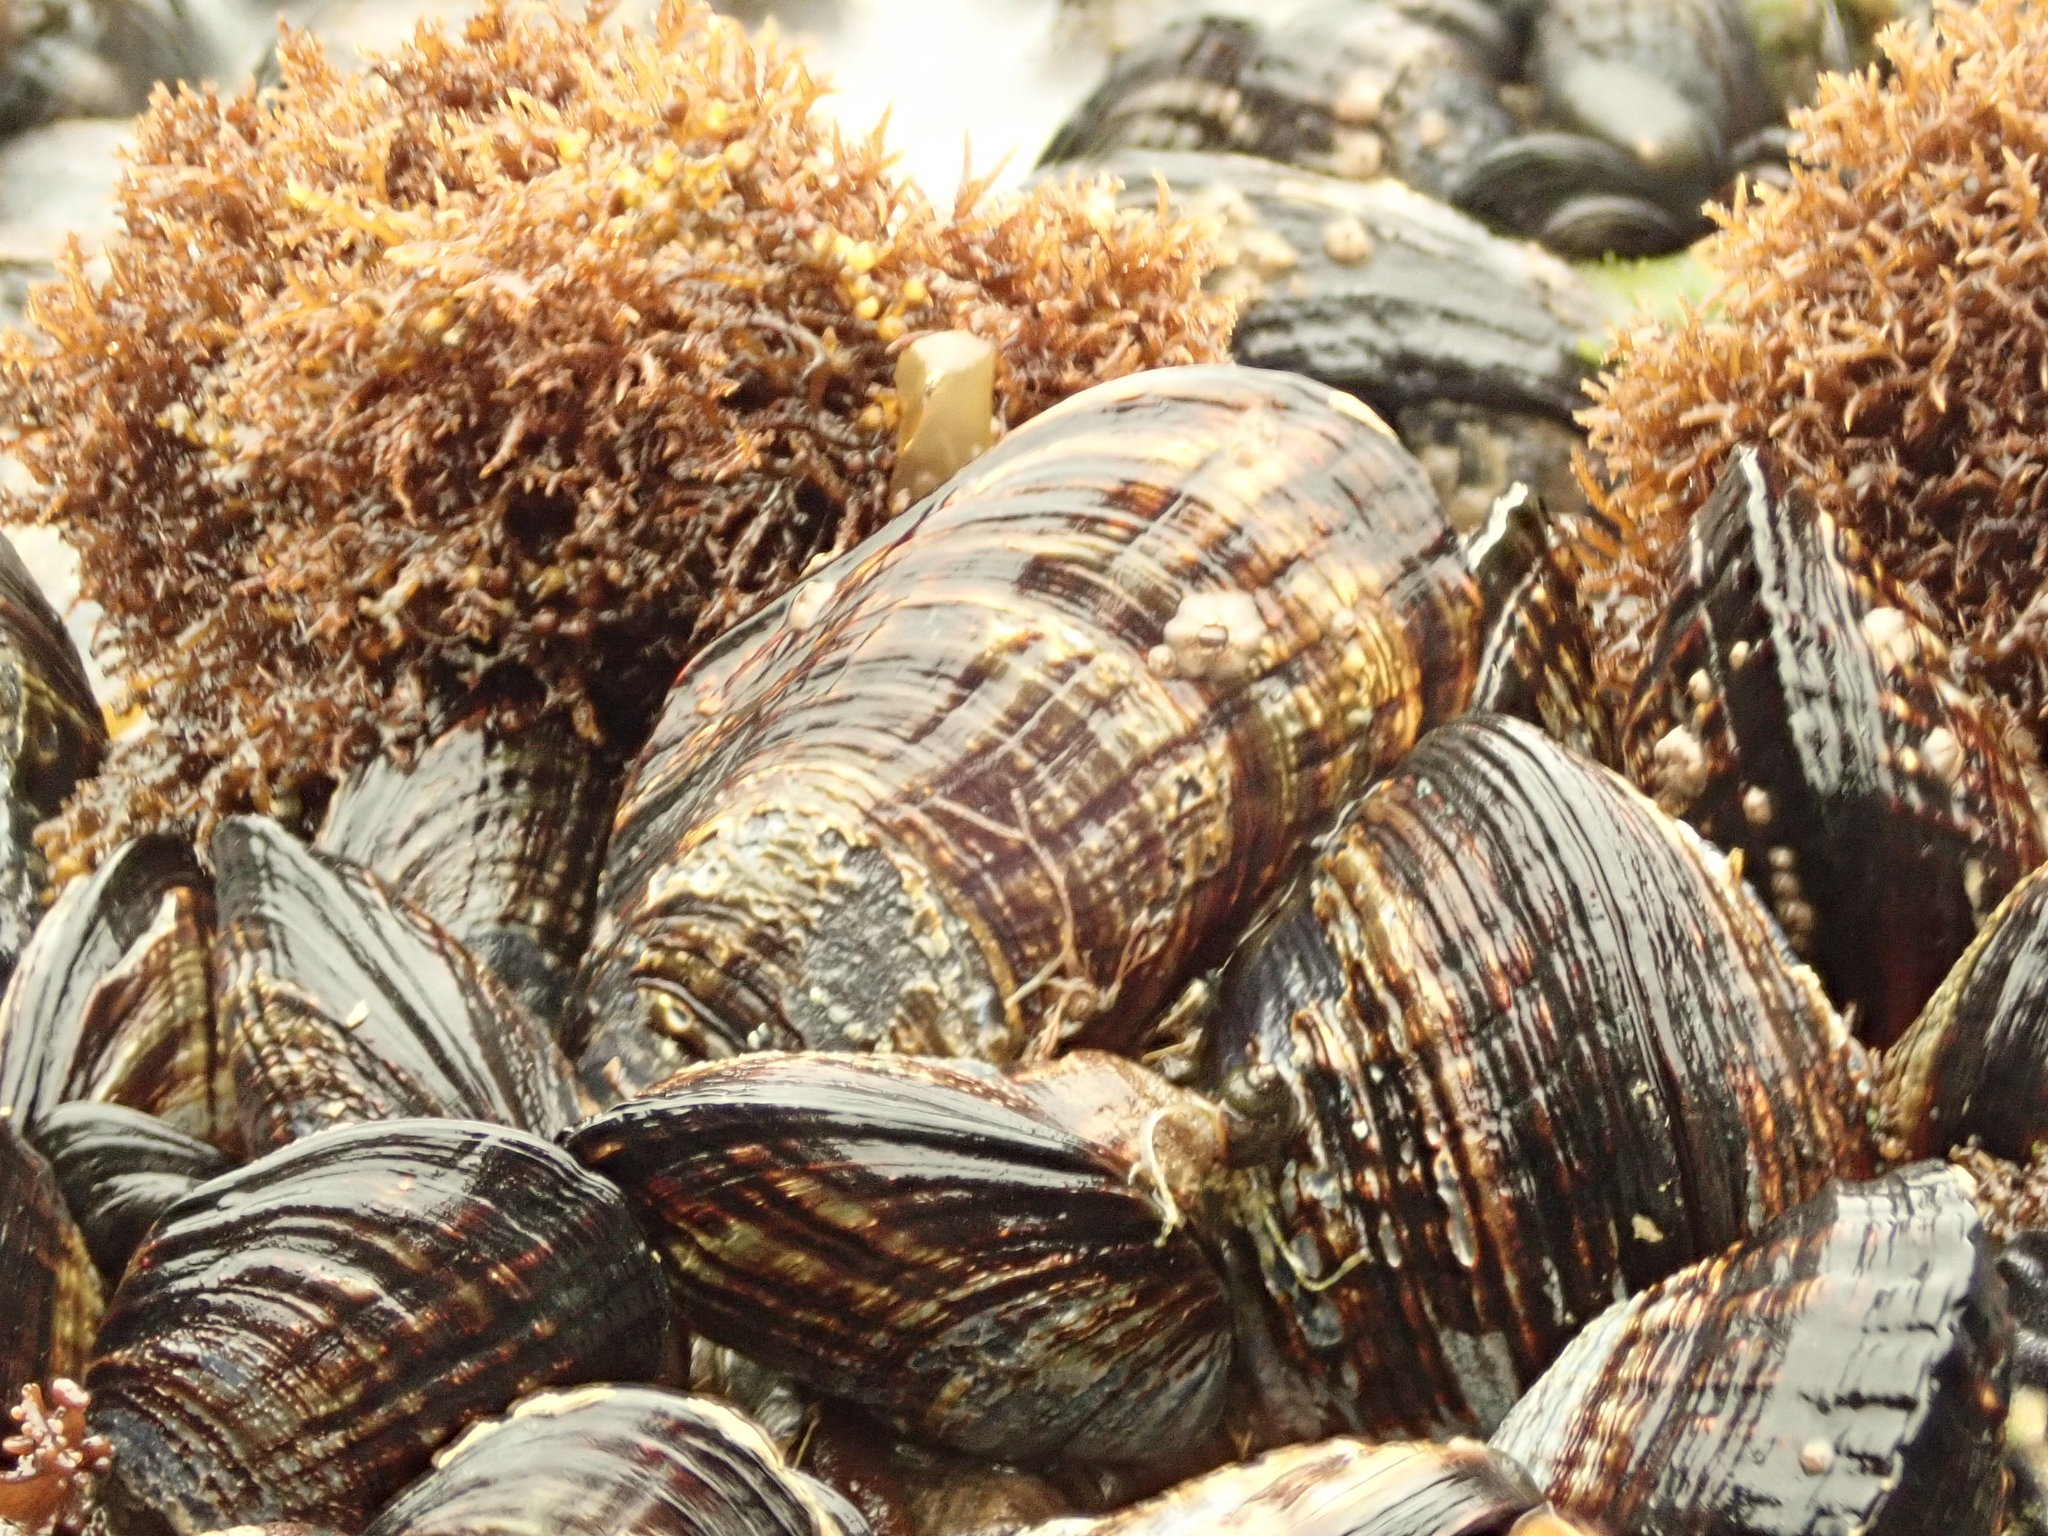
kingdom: Animalia
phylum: Mollusca
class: Bivalvia
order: Mytilida
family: Mytilidae
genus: Mytilus
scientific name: Mytilus californianus
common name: California mussel
